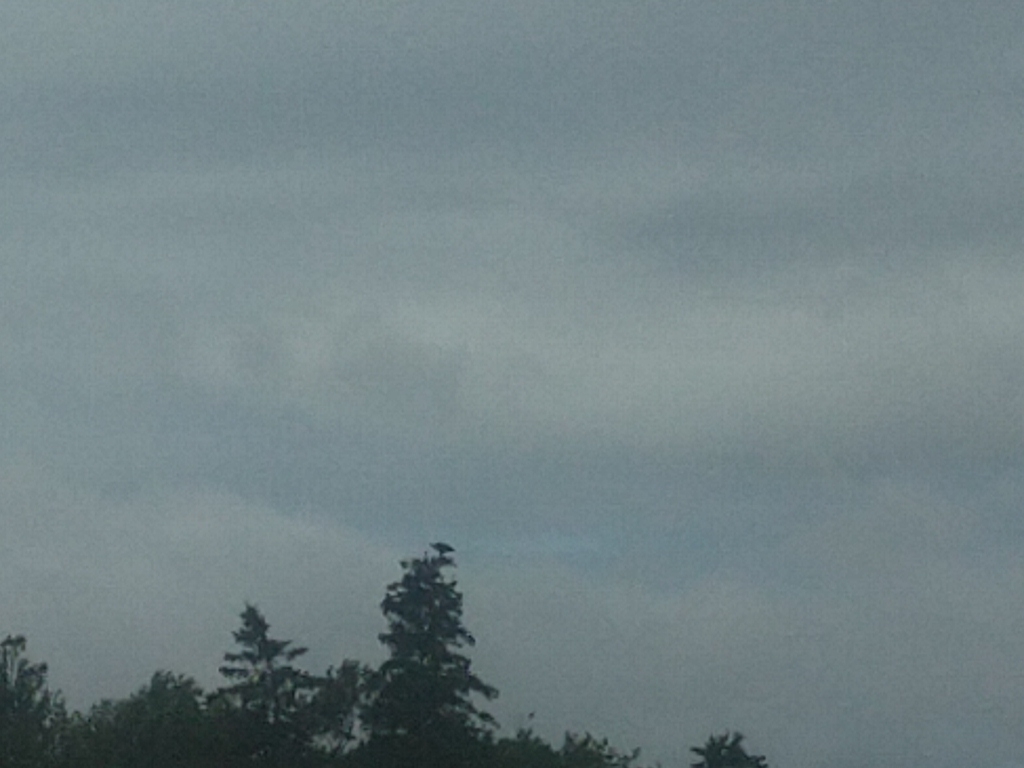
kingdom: Animalia
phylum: Chordata
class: Aves
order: Accipitriformes
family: Accipitridae
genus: Haliaeetus
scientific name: Haliaeetus leucocephalus
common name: Bald eagle
